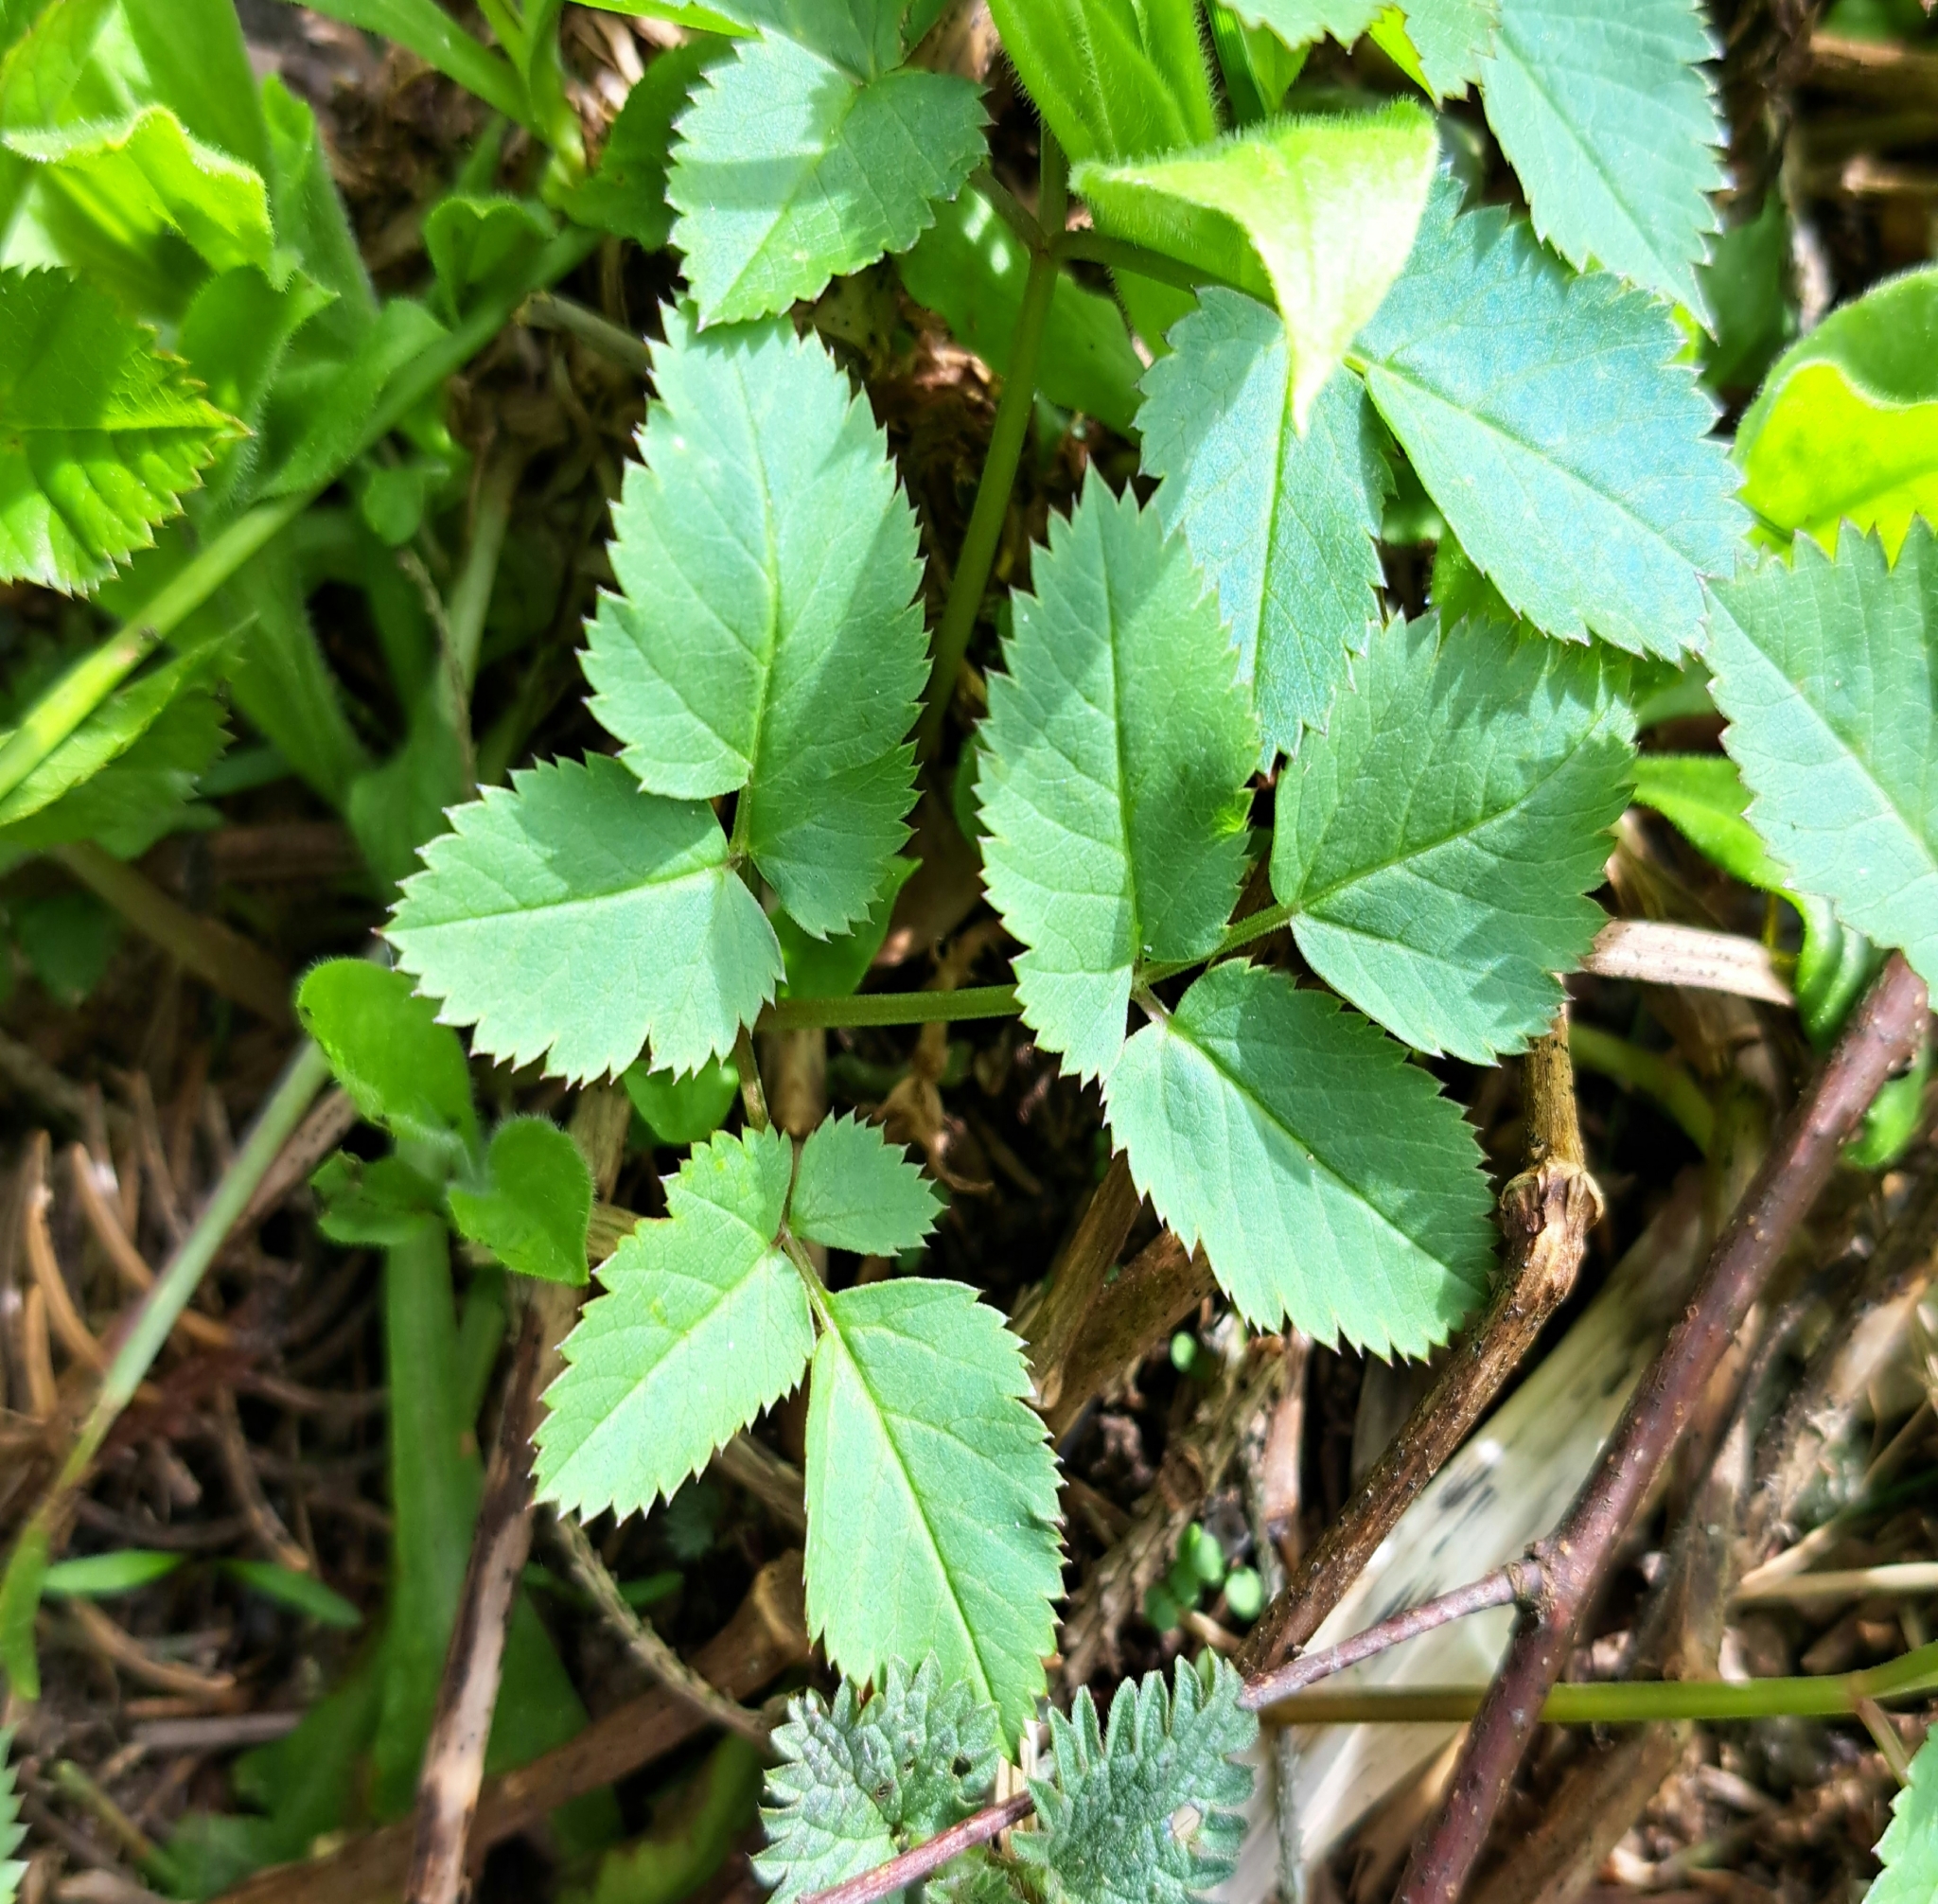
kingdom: Plantae
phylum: Tracheophyta
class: Magnoliopsida
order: Apiales
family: Apiaceae
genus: Aegopodium
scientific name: Aegopodium podagraria
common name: Ground-elder
